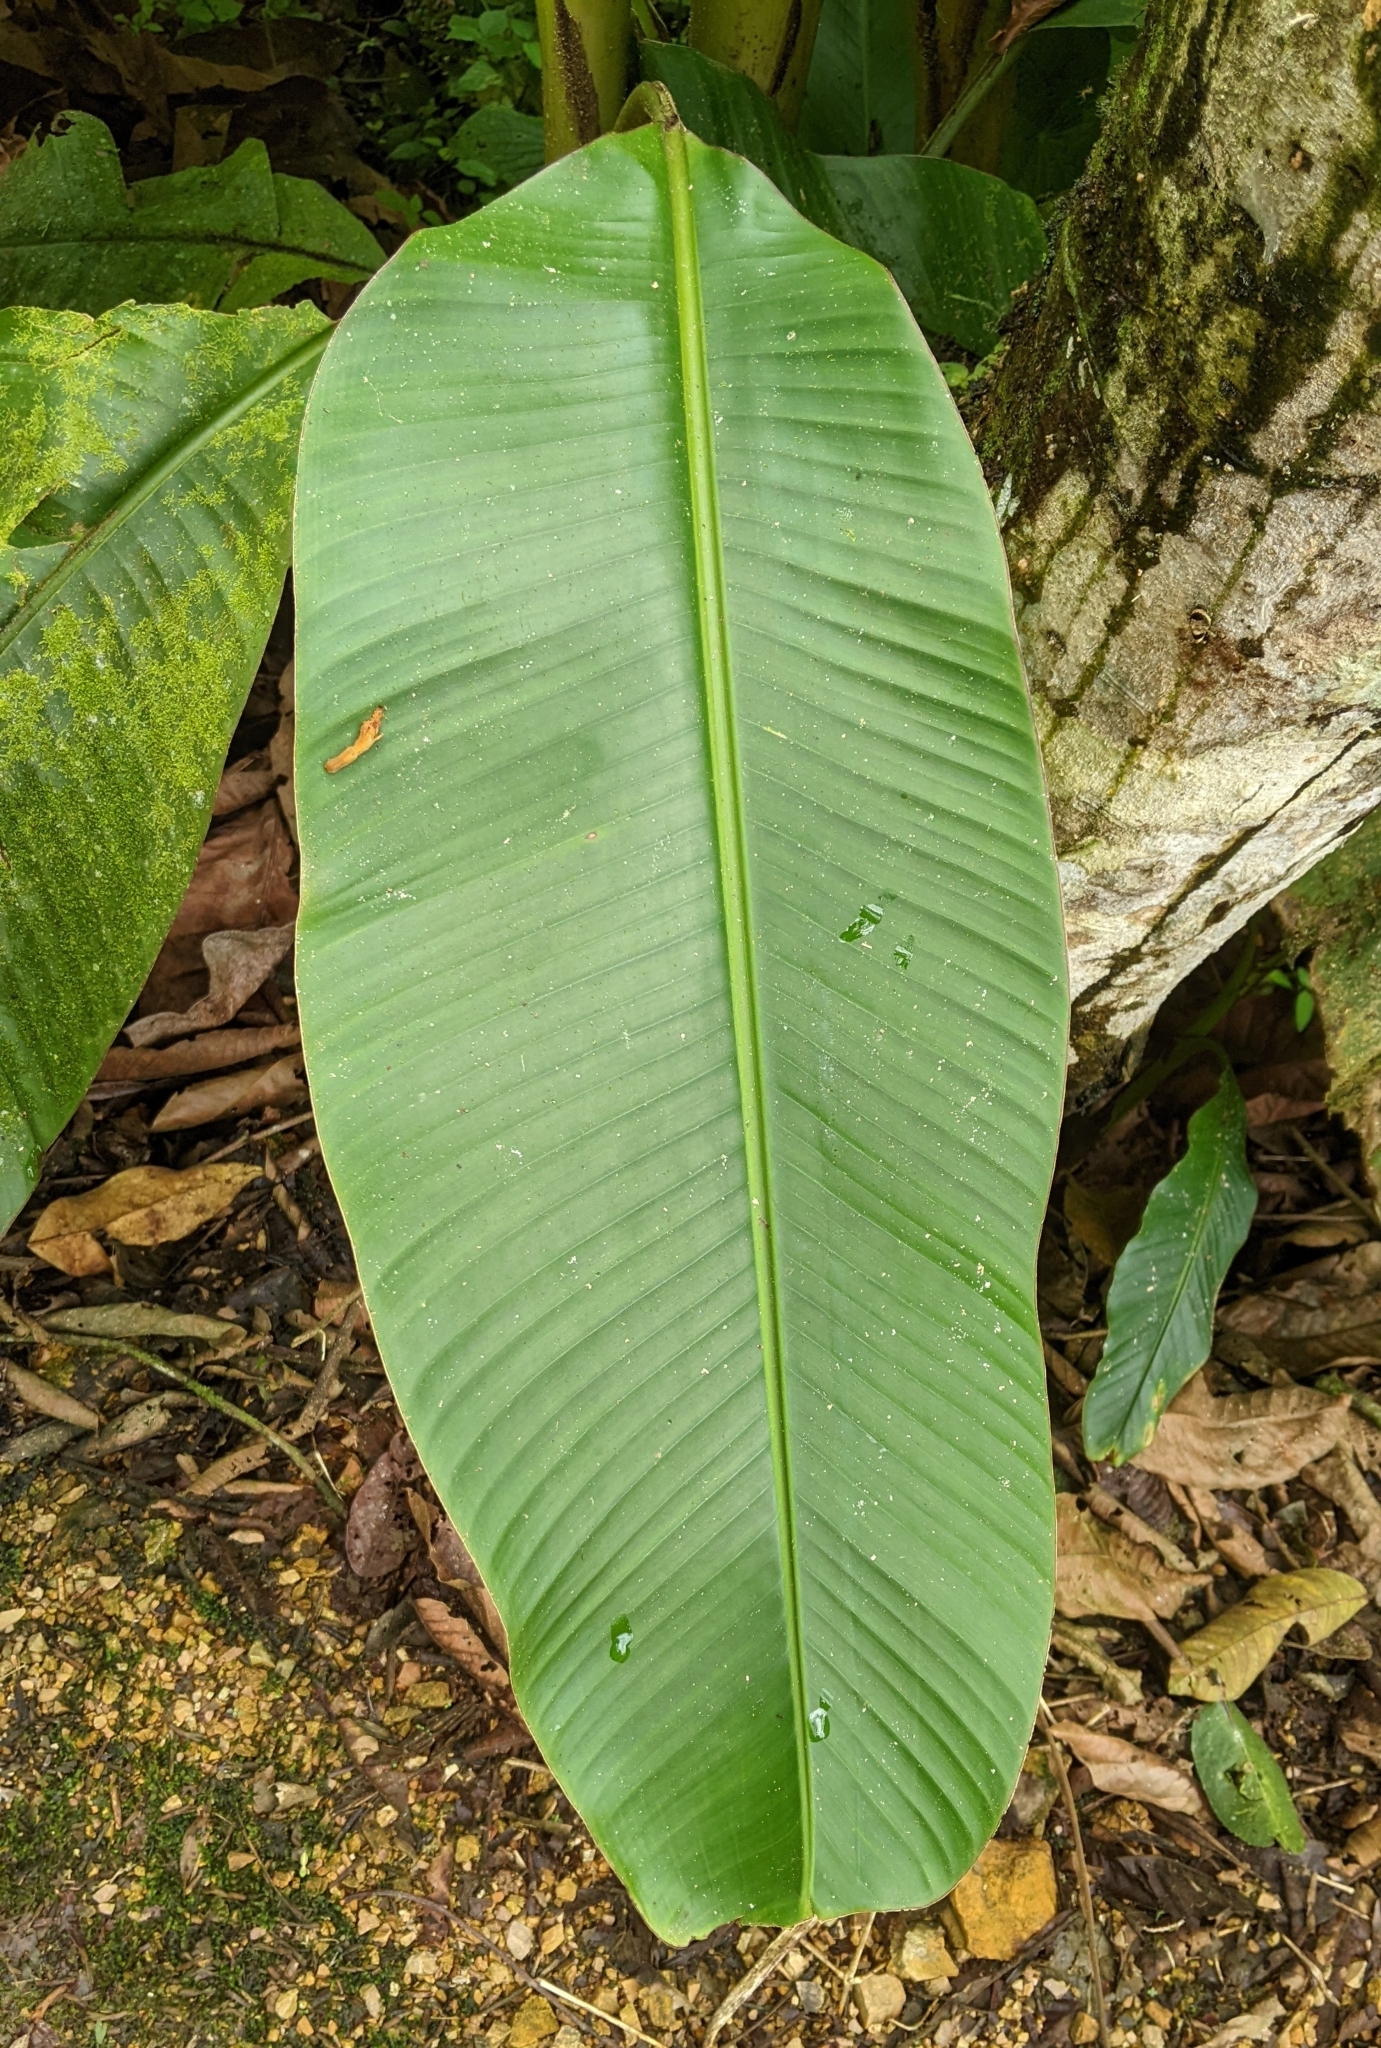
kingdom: Plantae
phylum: Tracheophyta
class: Liliopsida
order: Zingiberales
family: Musaceae
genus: Musa
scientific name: Musa velutina
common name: Pink velvet banana
